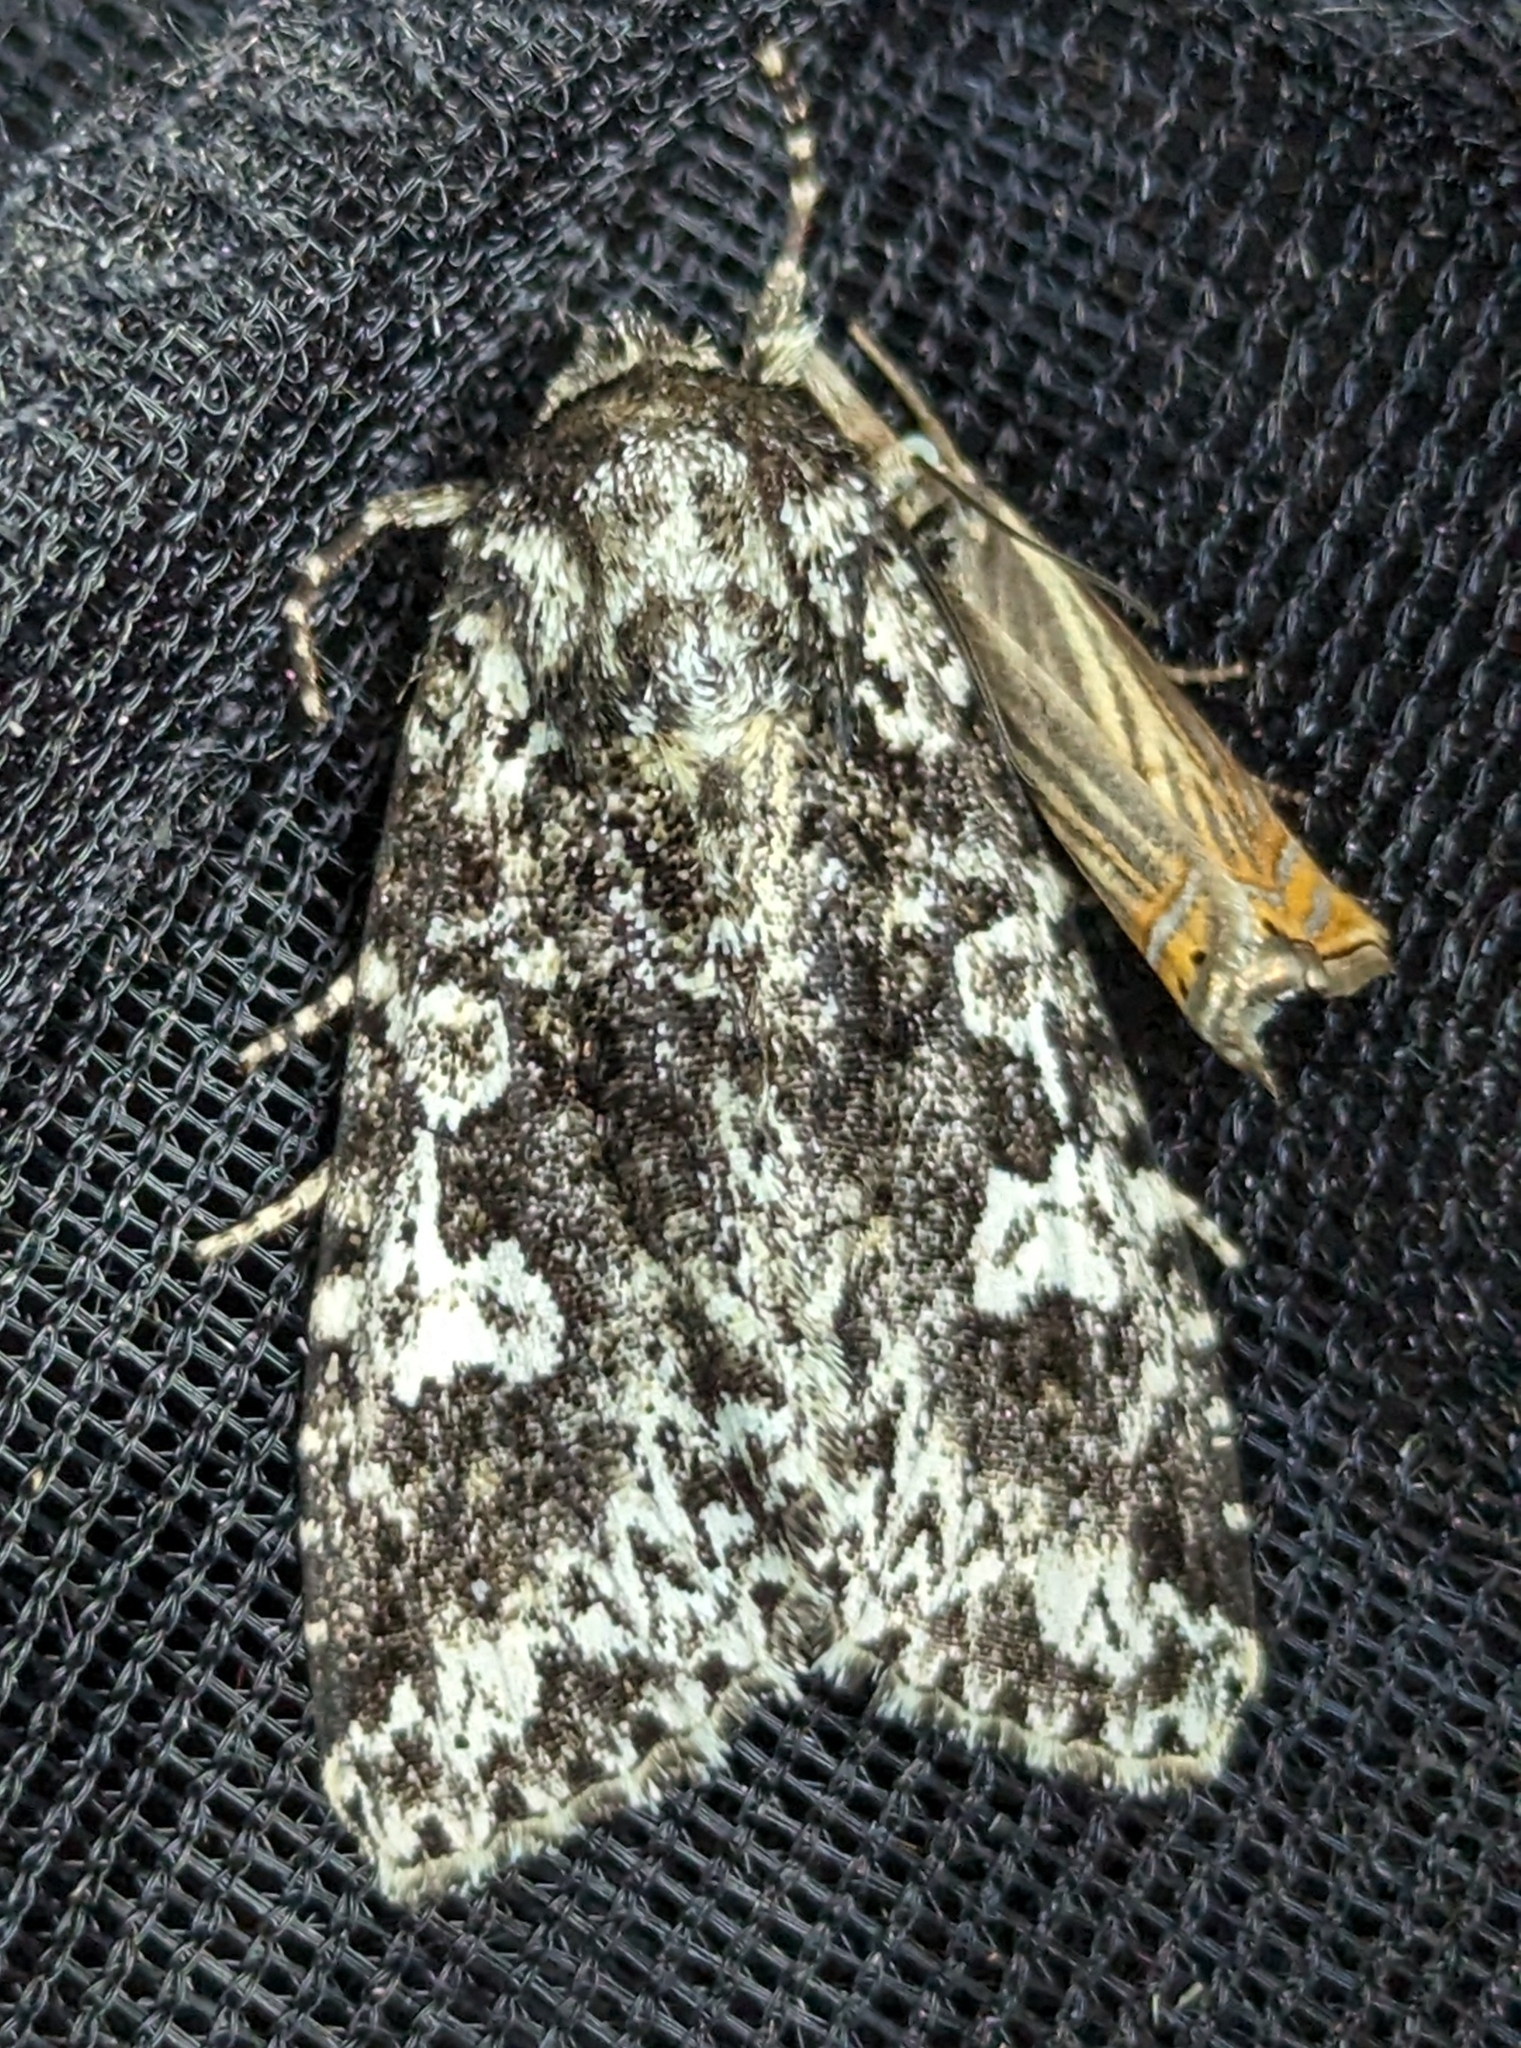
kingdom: Animalia
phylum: Arthropoda
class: Insecta
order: Lepidoptera
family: Noctuidae
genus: Melanchra
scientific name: Melanchra adjuncta
